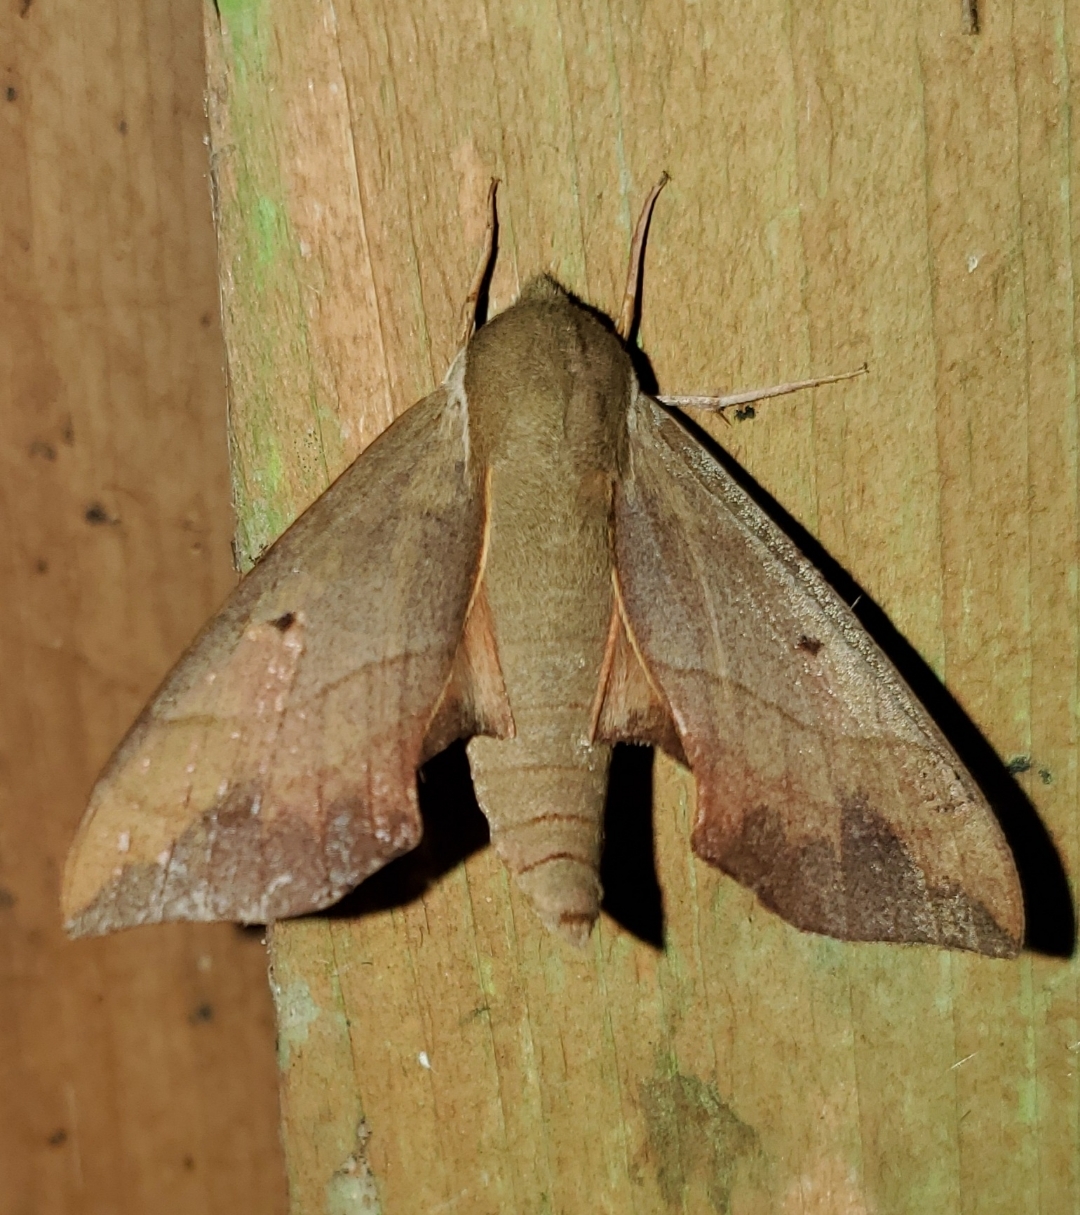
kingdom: Animalia
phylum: Arthropoda
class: Insecta
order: Lepidoptera
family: Sphingidae
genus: Darapsa
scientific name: Darapsa myron
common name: Hog sphinx
